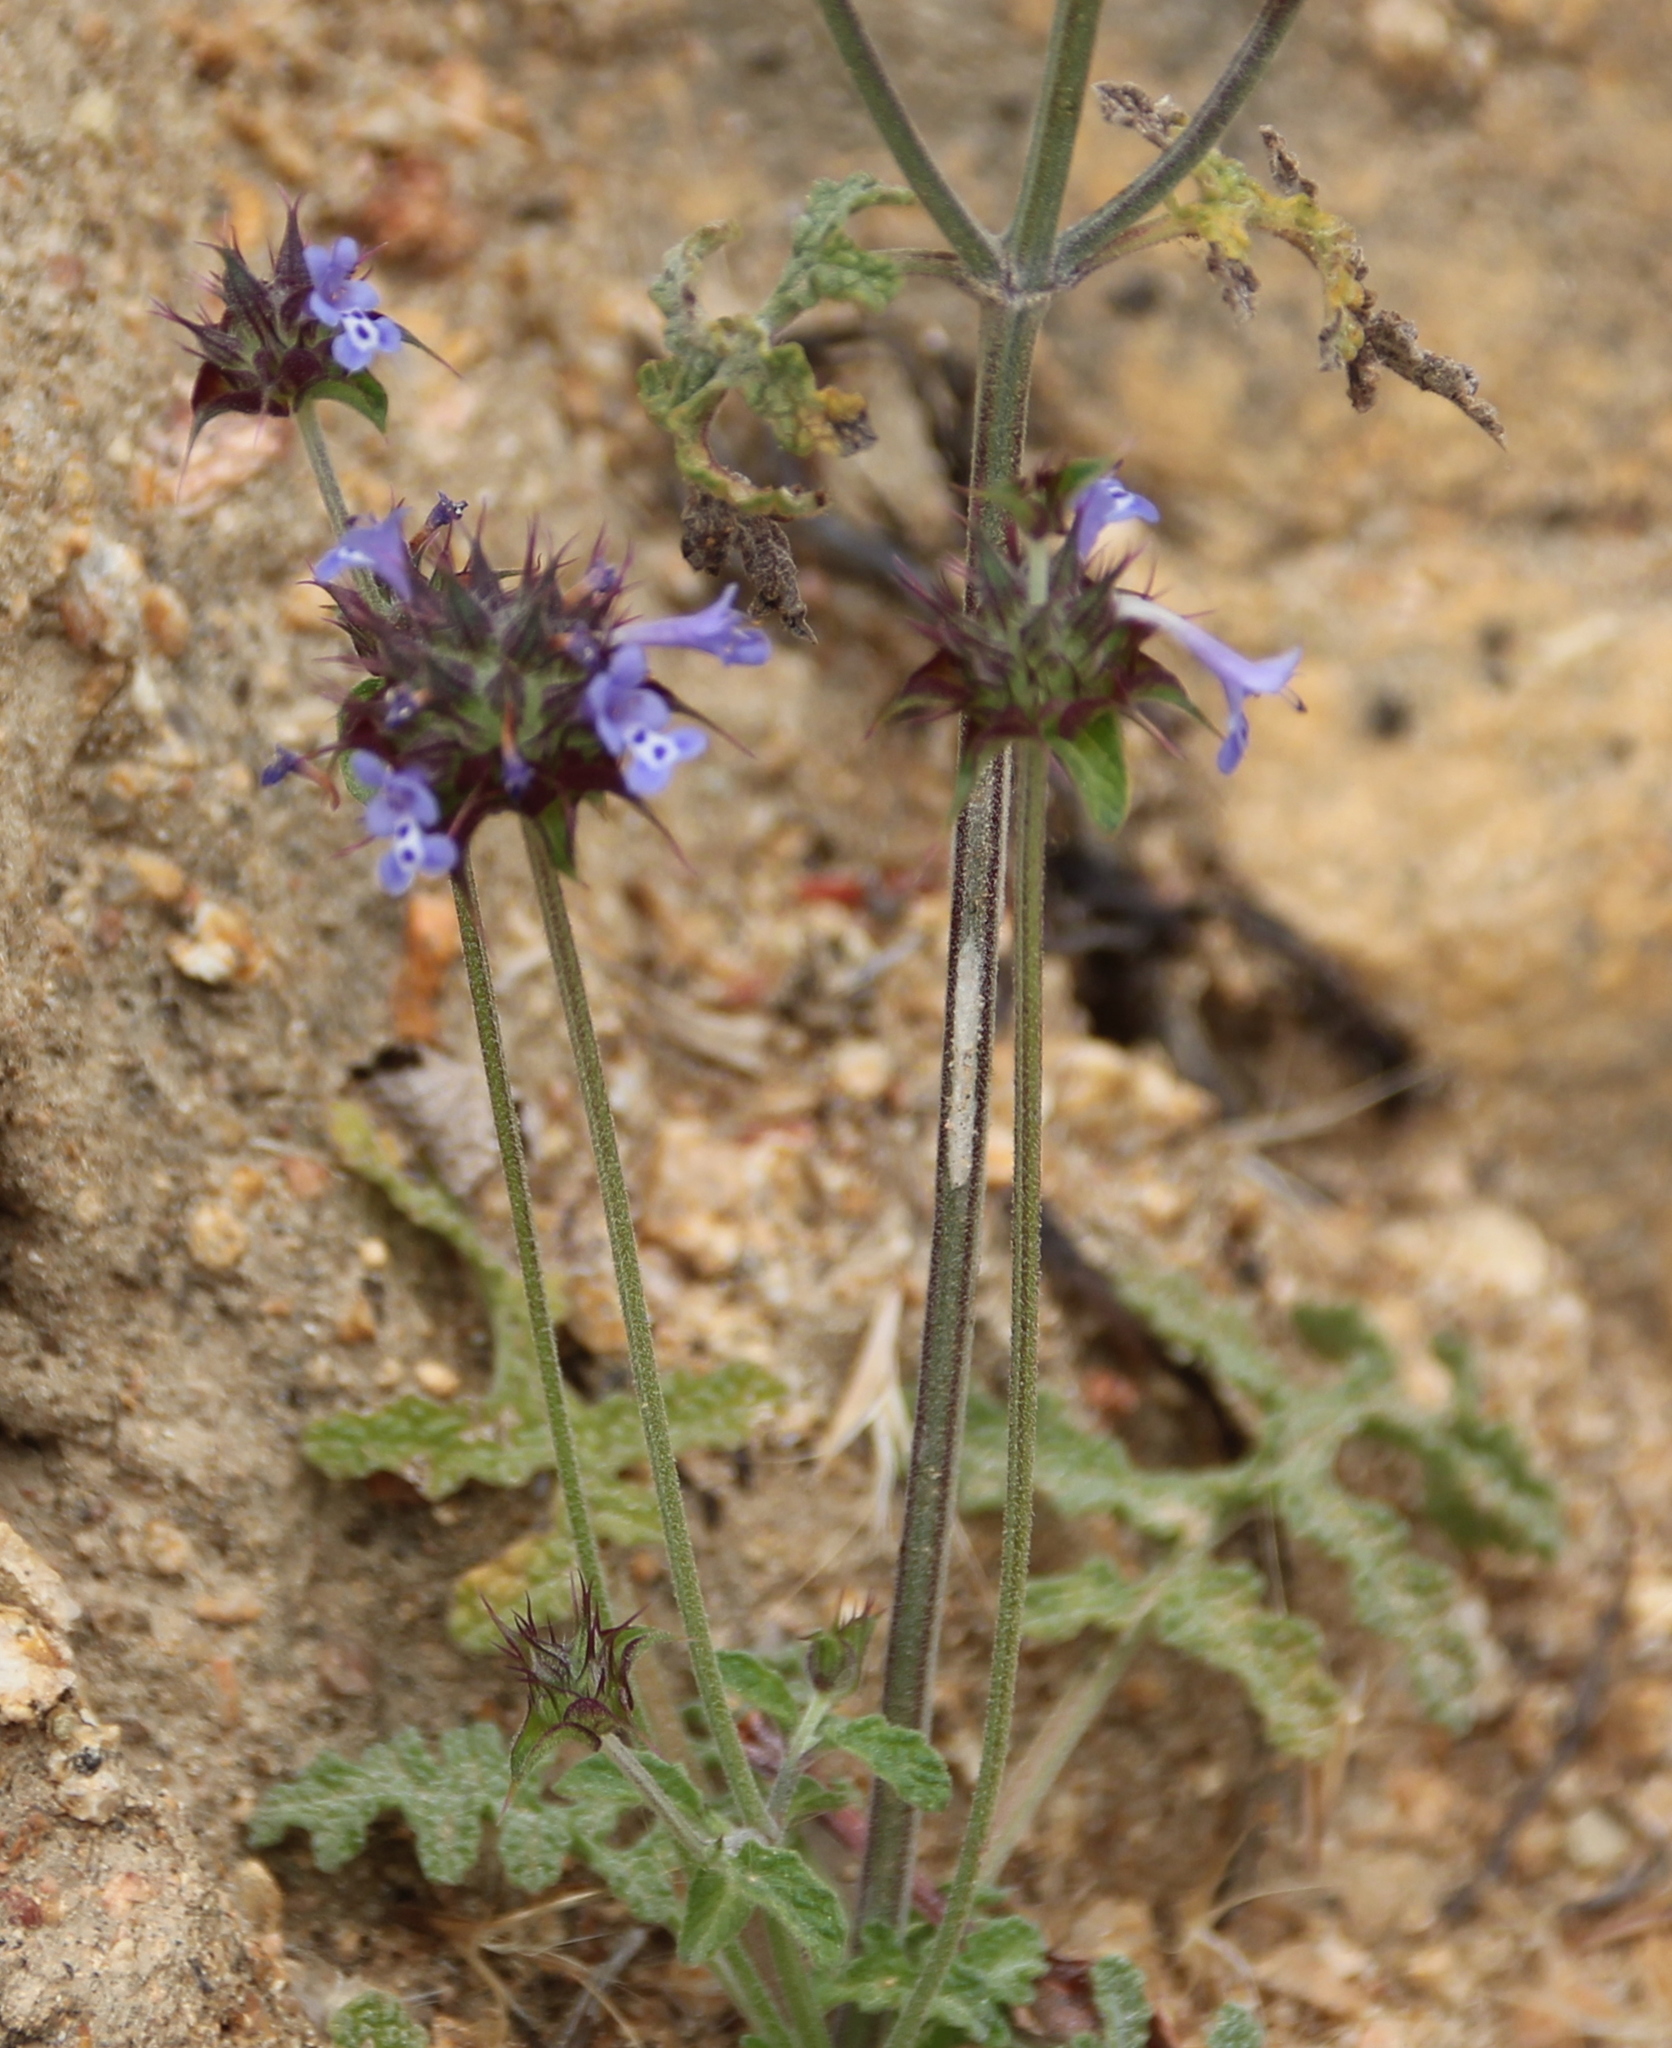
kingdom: Plantae
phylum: Tracheophyta
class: Magnoliopsida
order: Lamiales
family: Lamiaceae
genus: Salvia
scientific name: Salvia columbariae
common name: Chia
